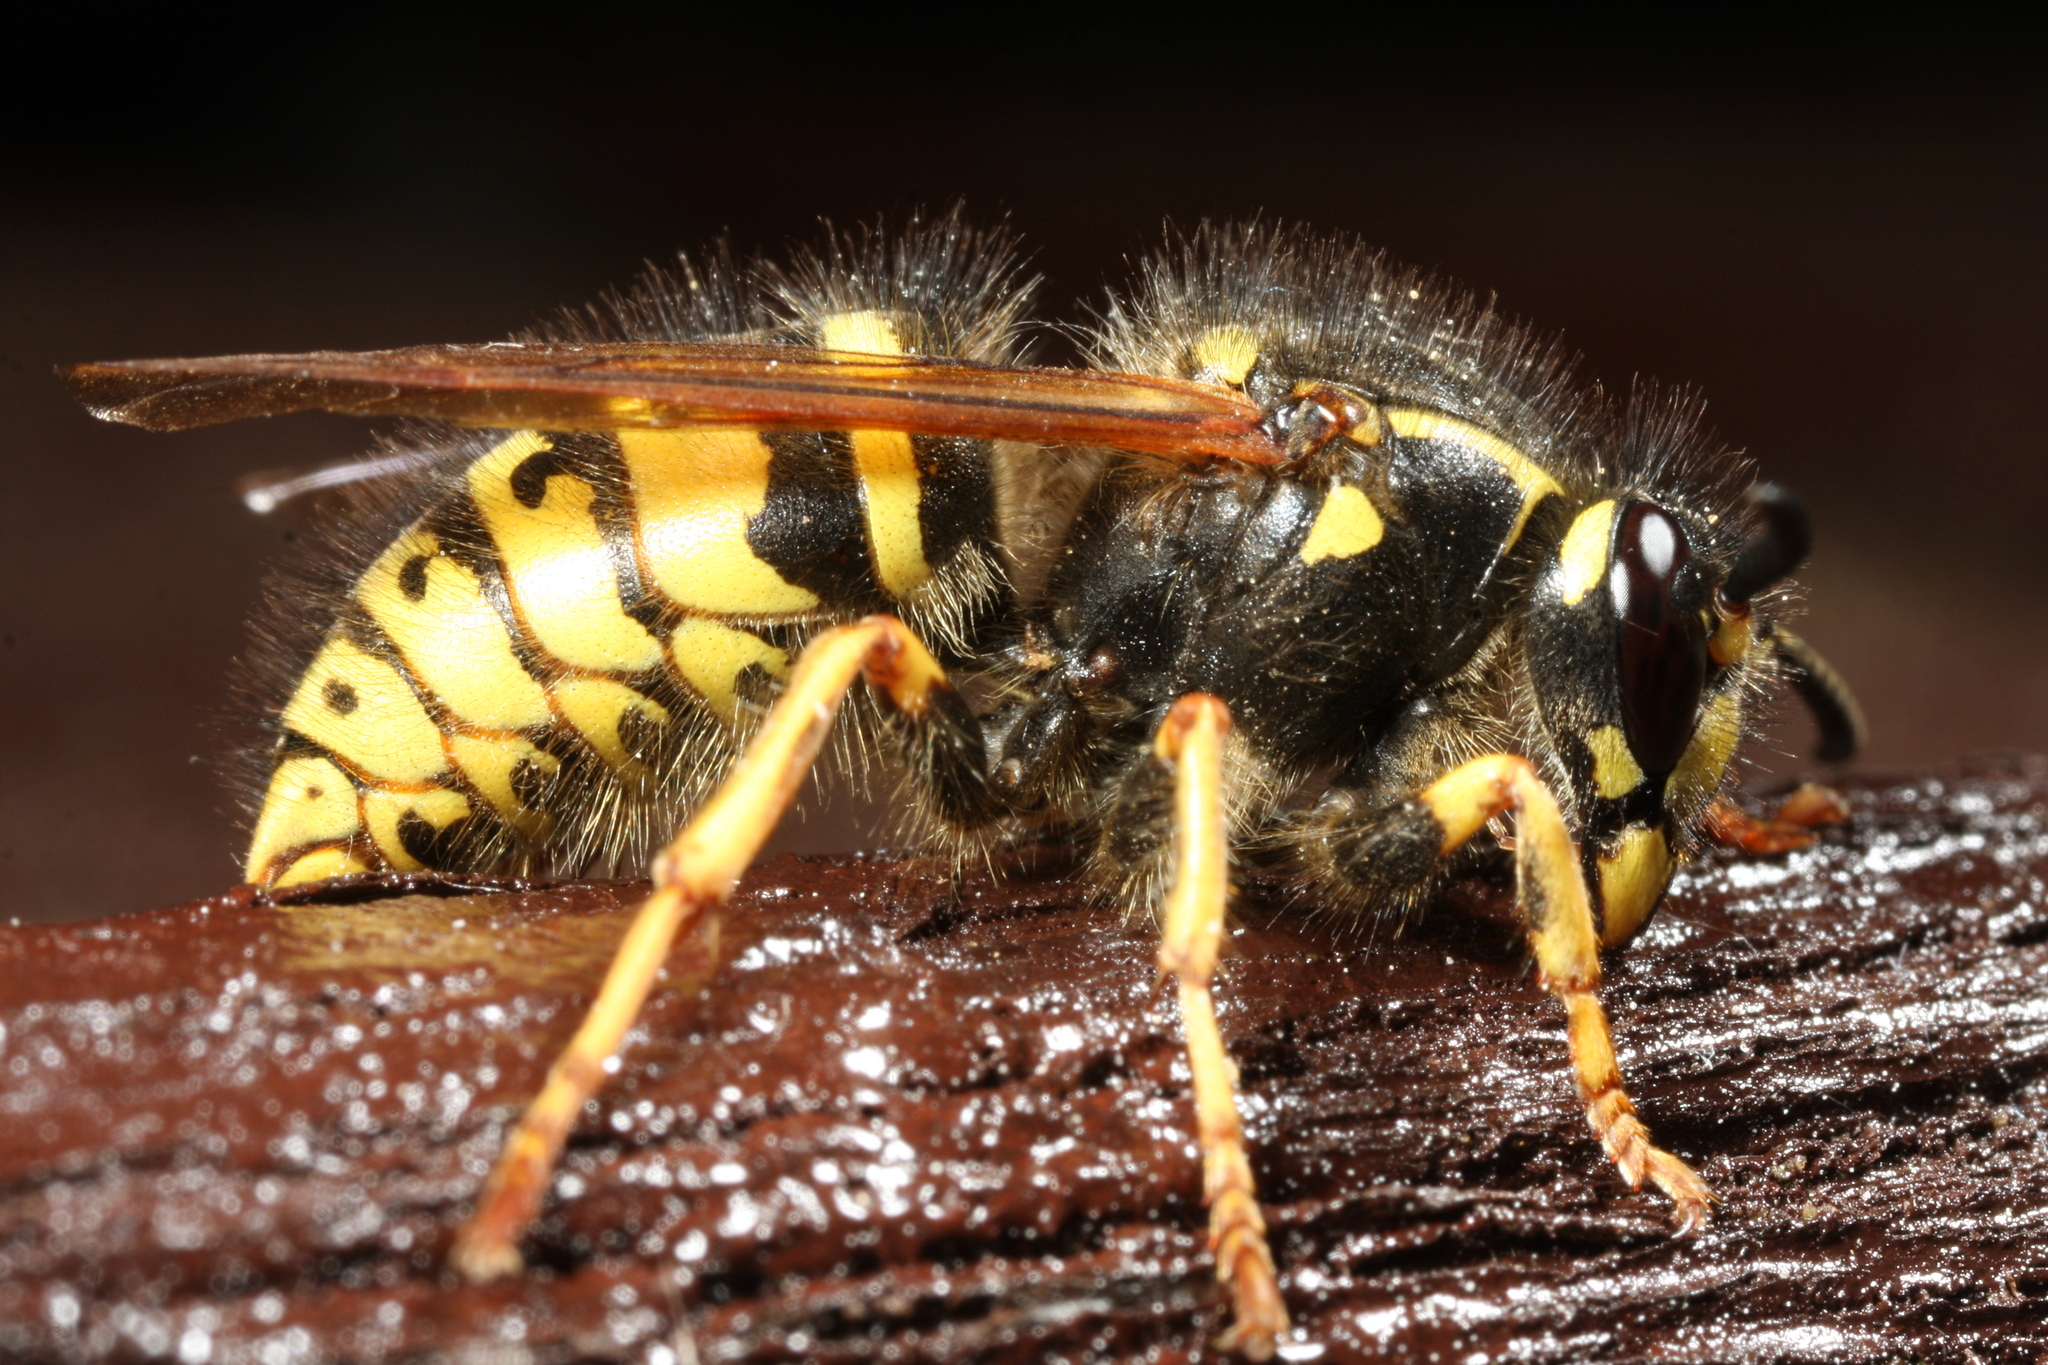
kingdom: Animalia
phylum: Arthropoda
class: Insecta
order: Hymenoptera
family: Vespidae
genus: Dolichovespula
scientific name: Dolichovespula adulterina
